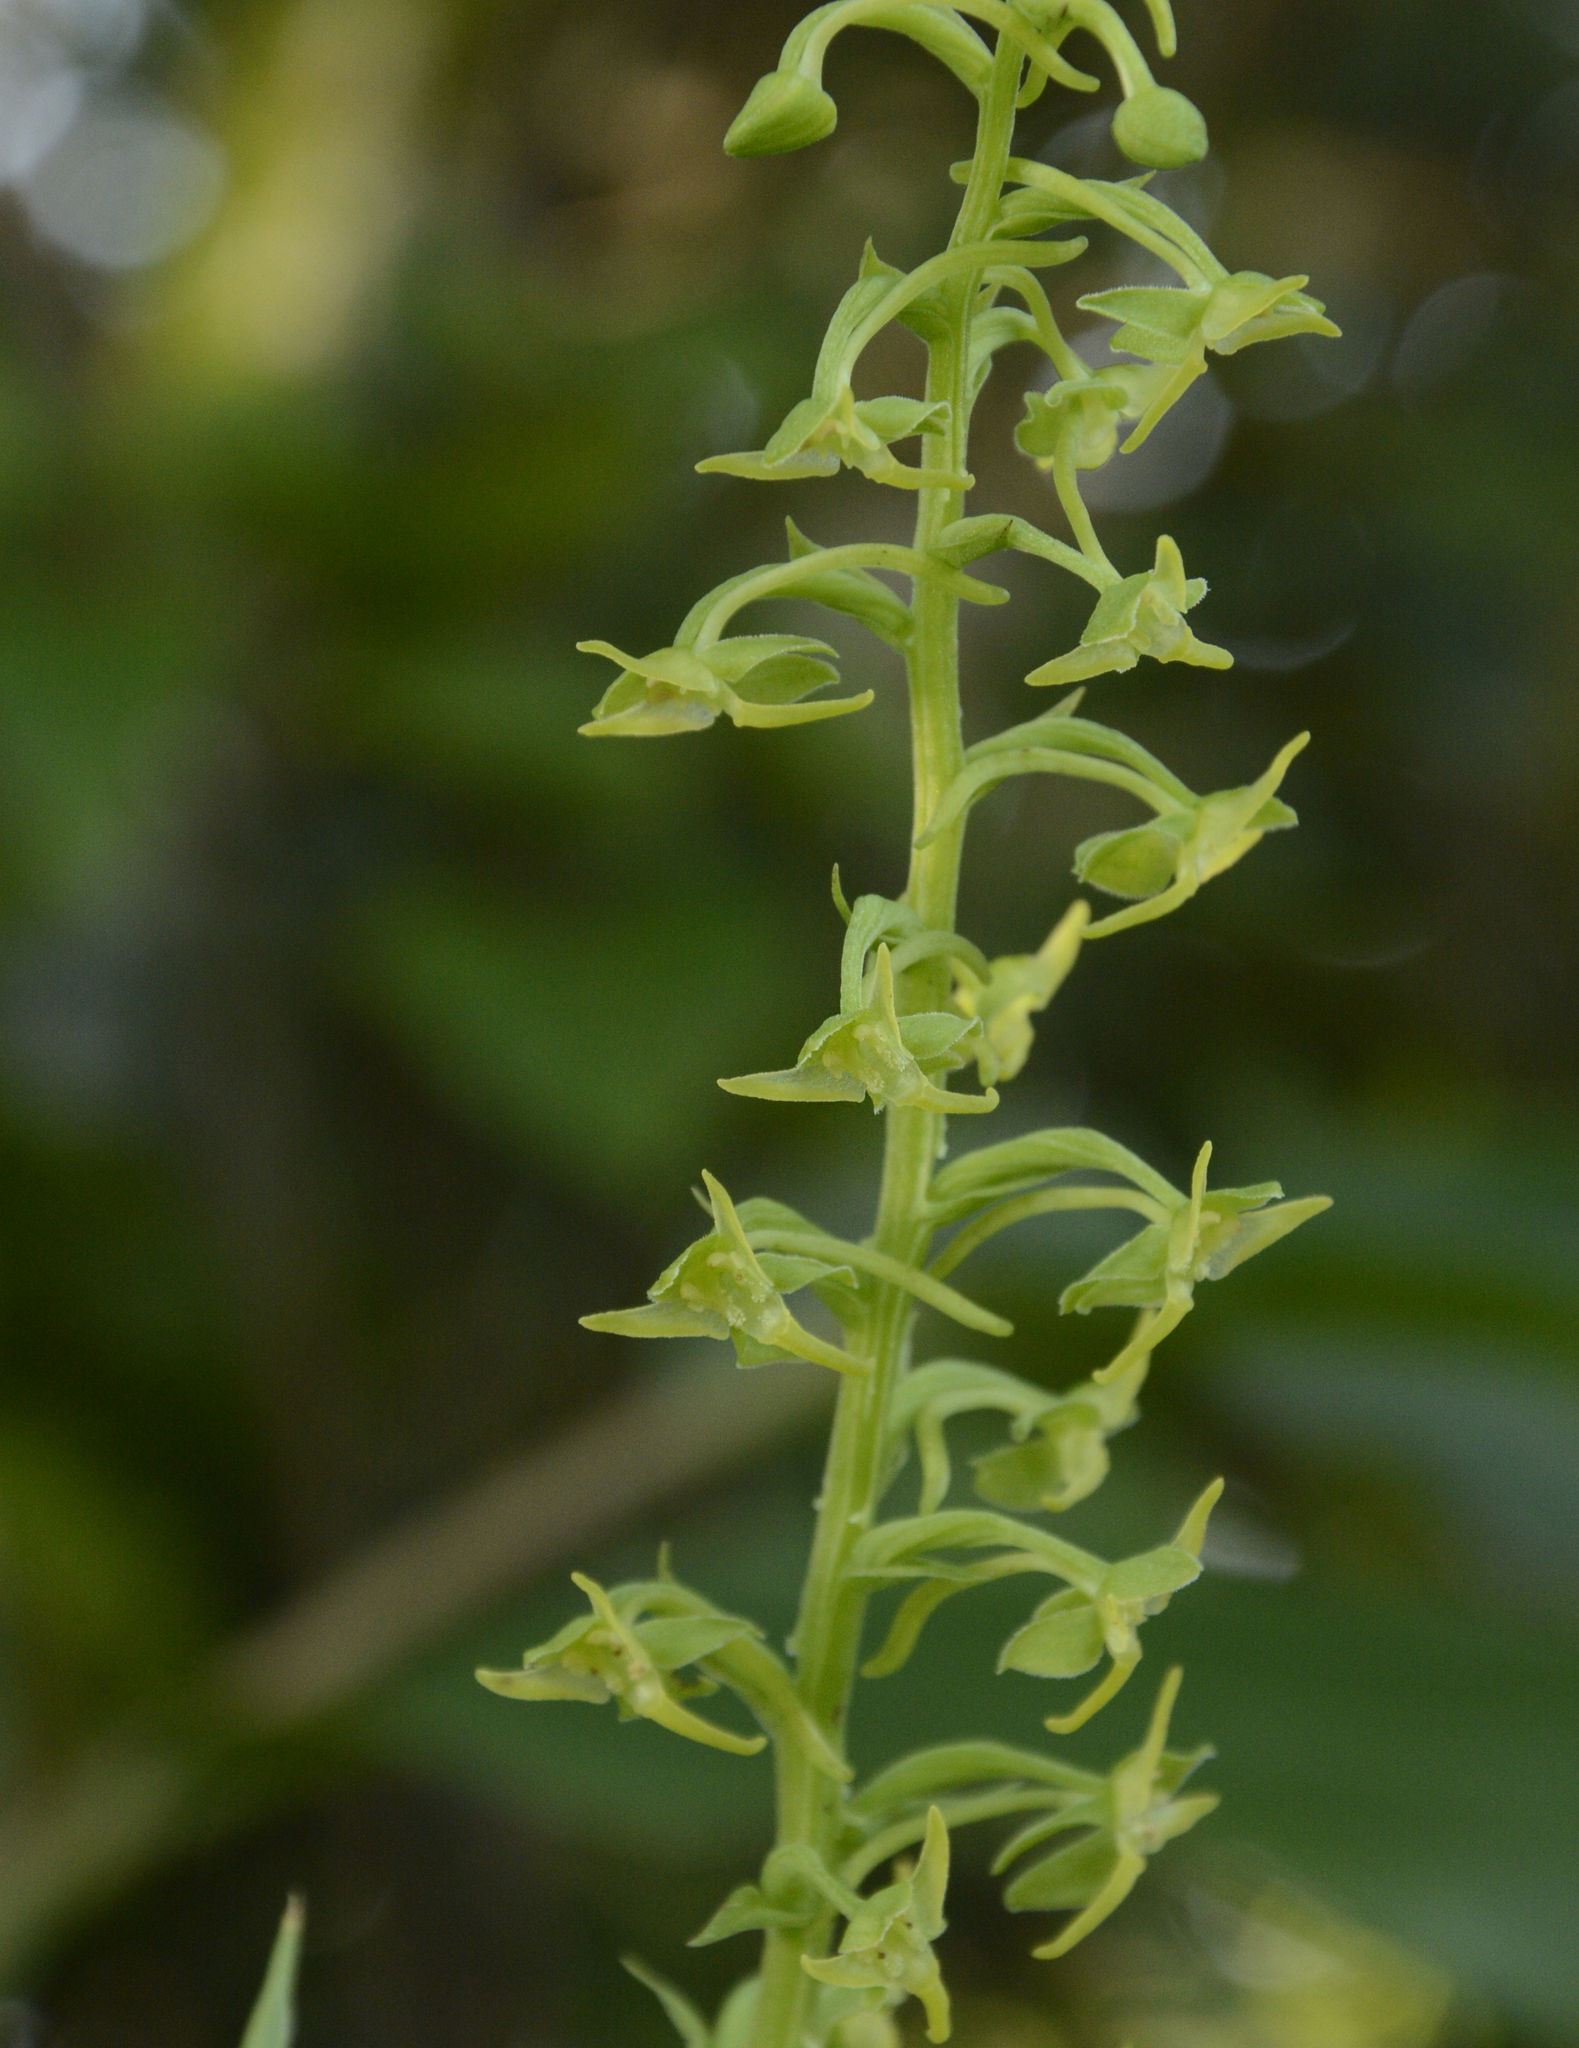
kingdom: Plantae
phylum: Tracheophyta
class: Liliopsida
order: Asparagales
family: Orchidaceae
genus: Herminium
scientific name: Herminium edgeworthii
